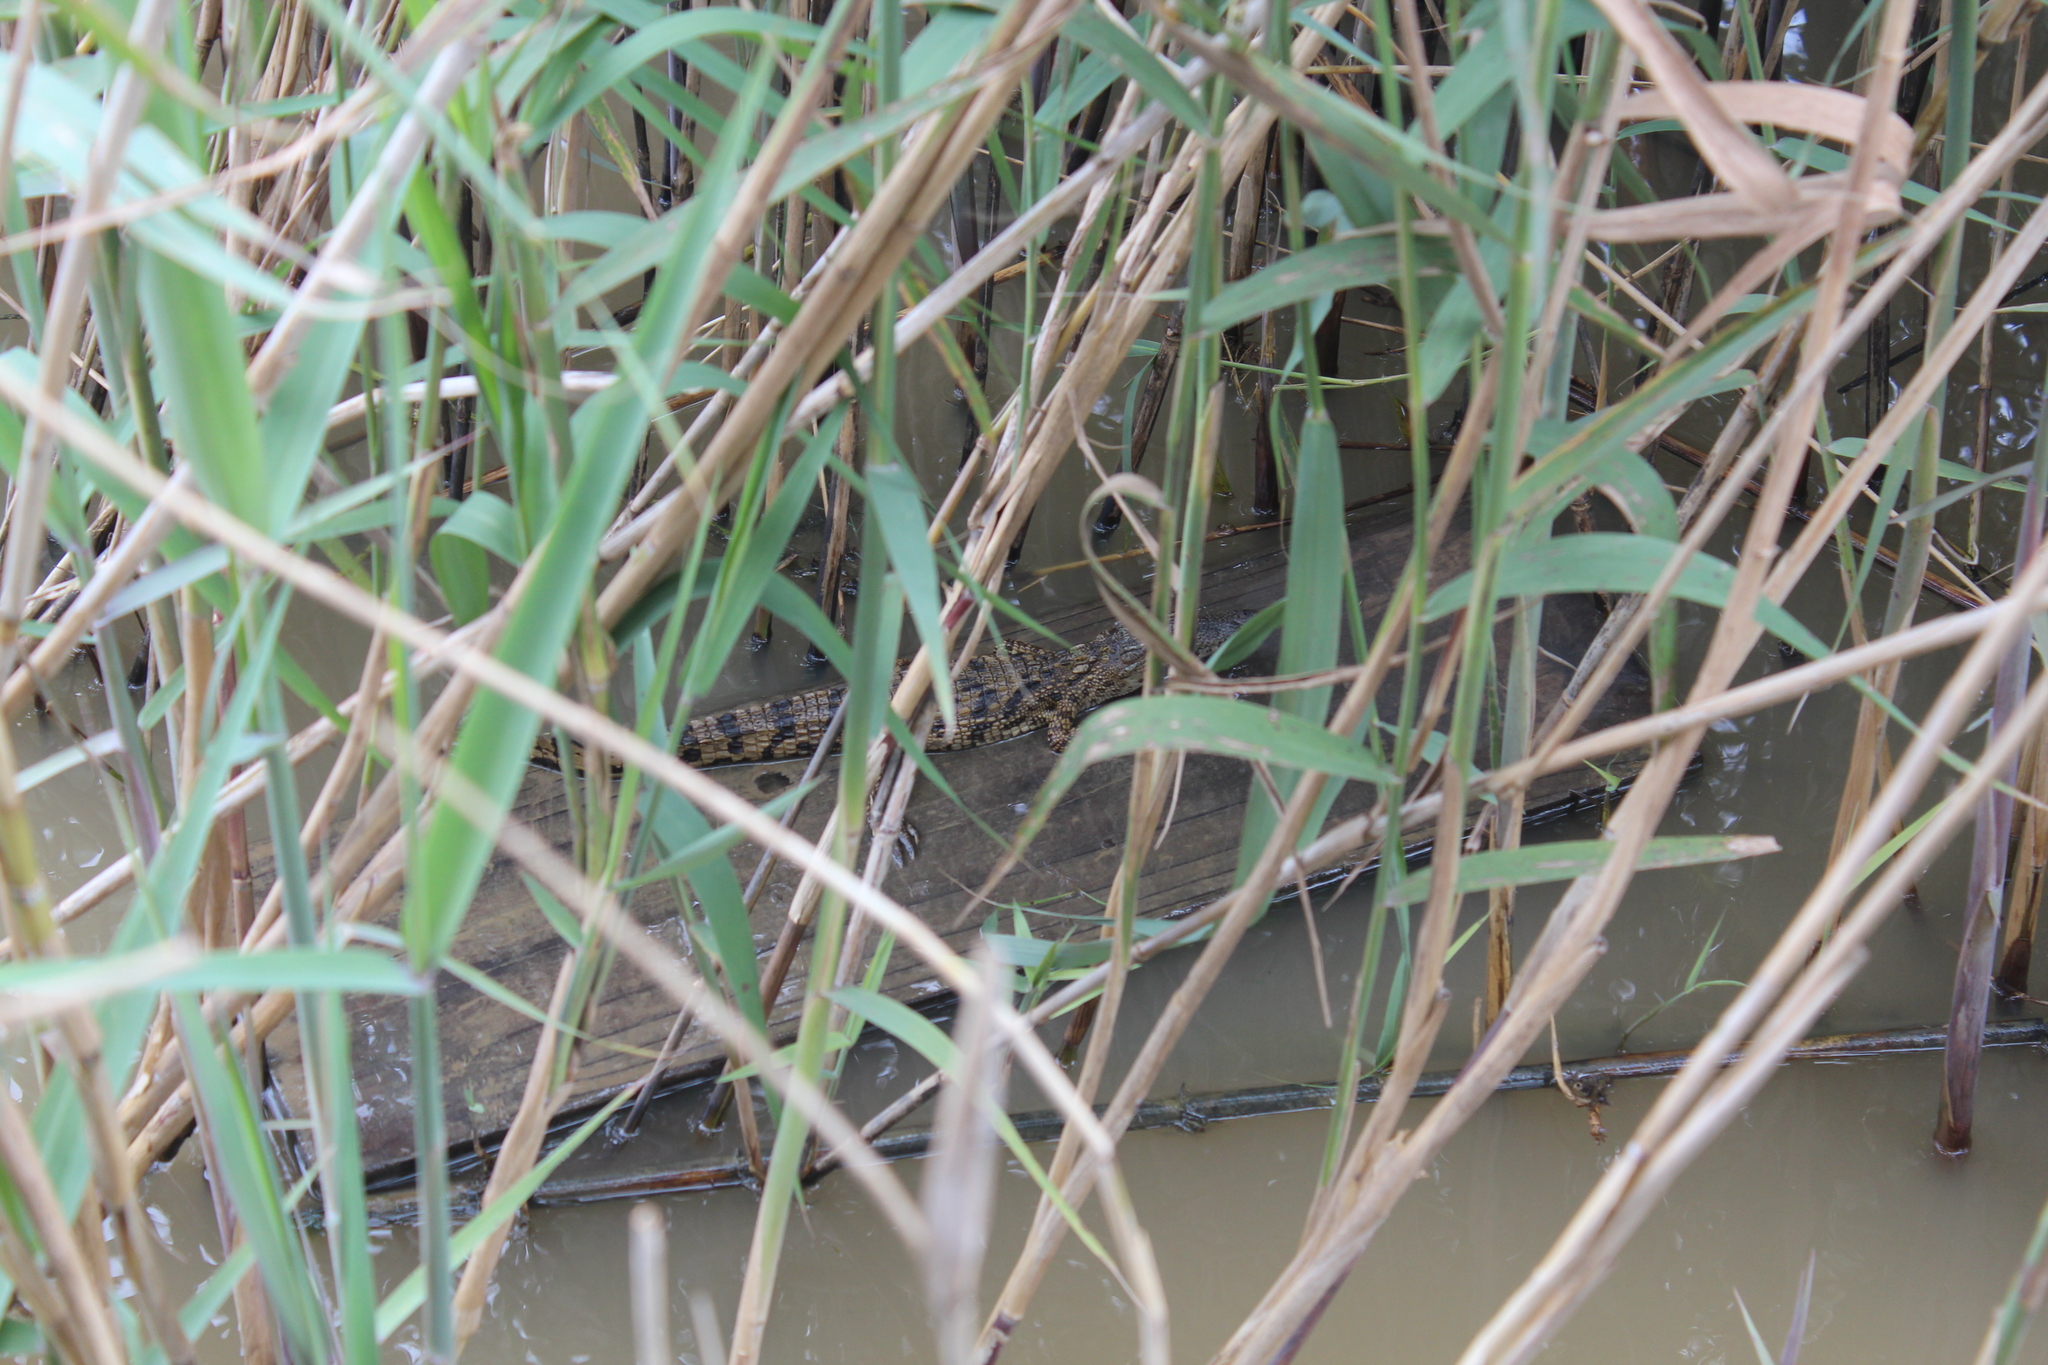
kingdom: Animalia
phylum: Chordata
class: Crocodylia
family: Crocodylidae
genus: Crocodylus
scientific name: Crocodylus niloticus
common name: Nile crocodile
